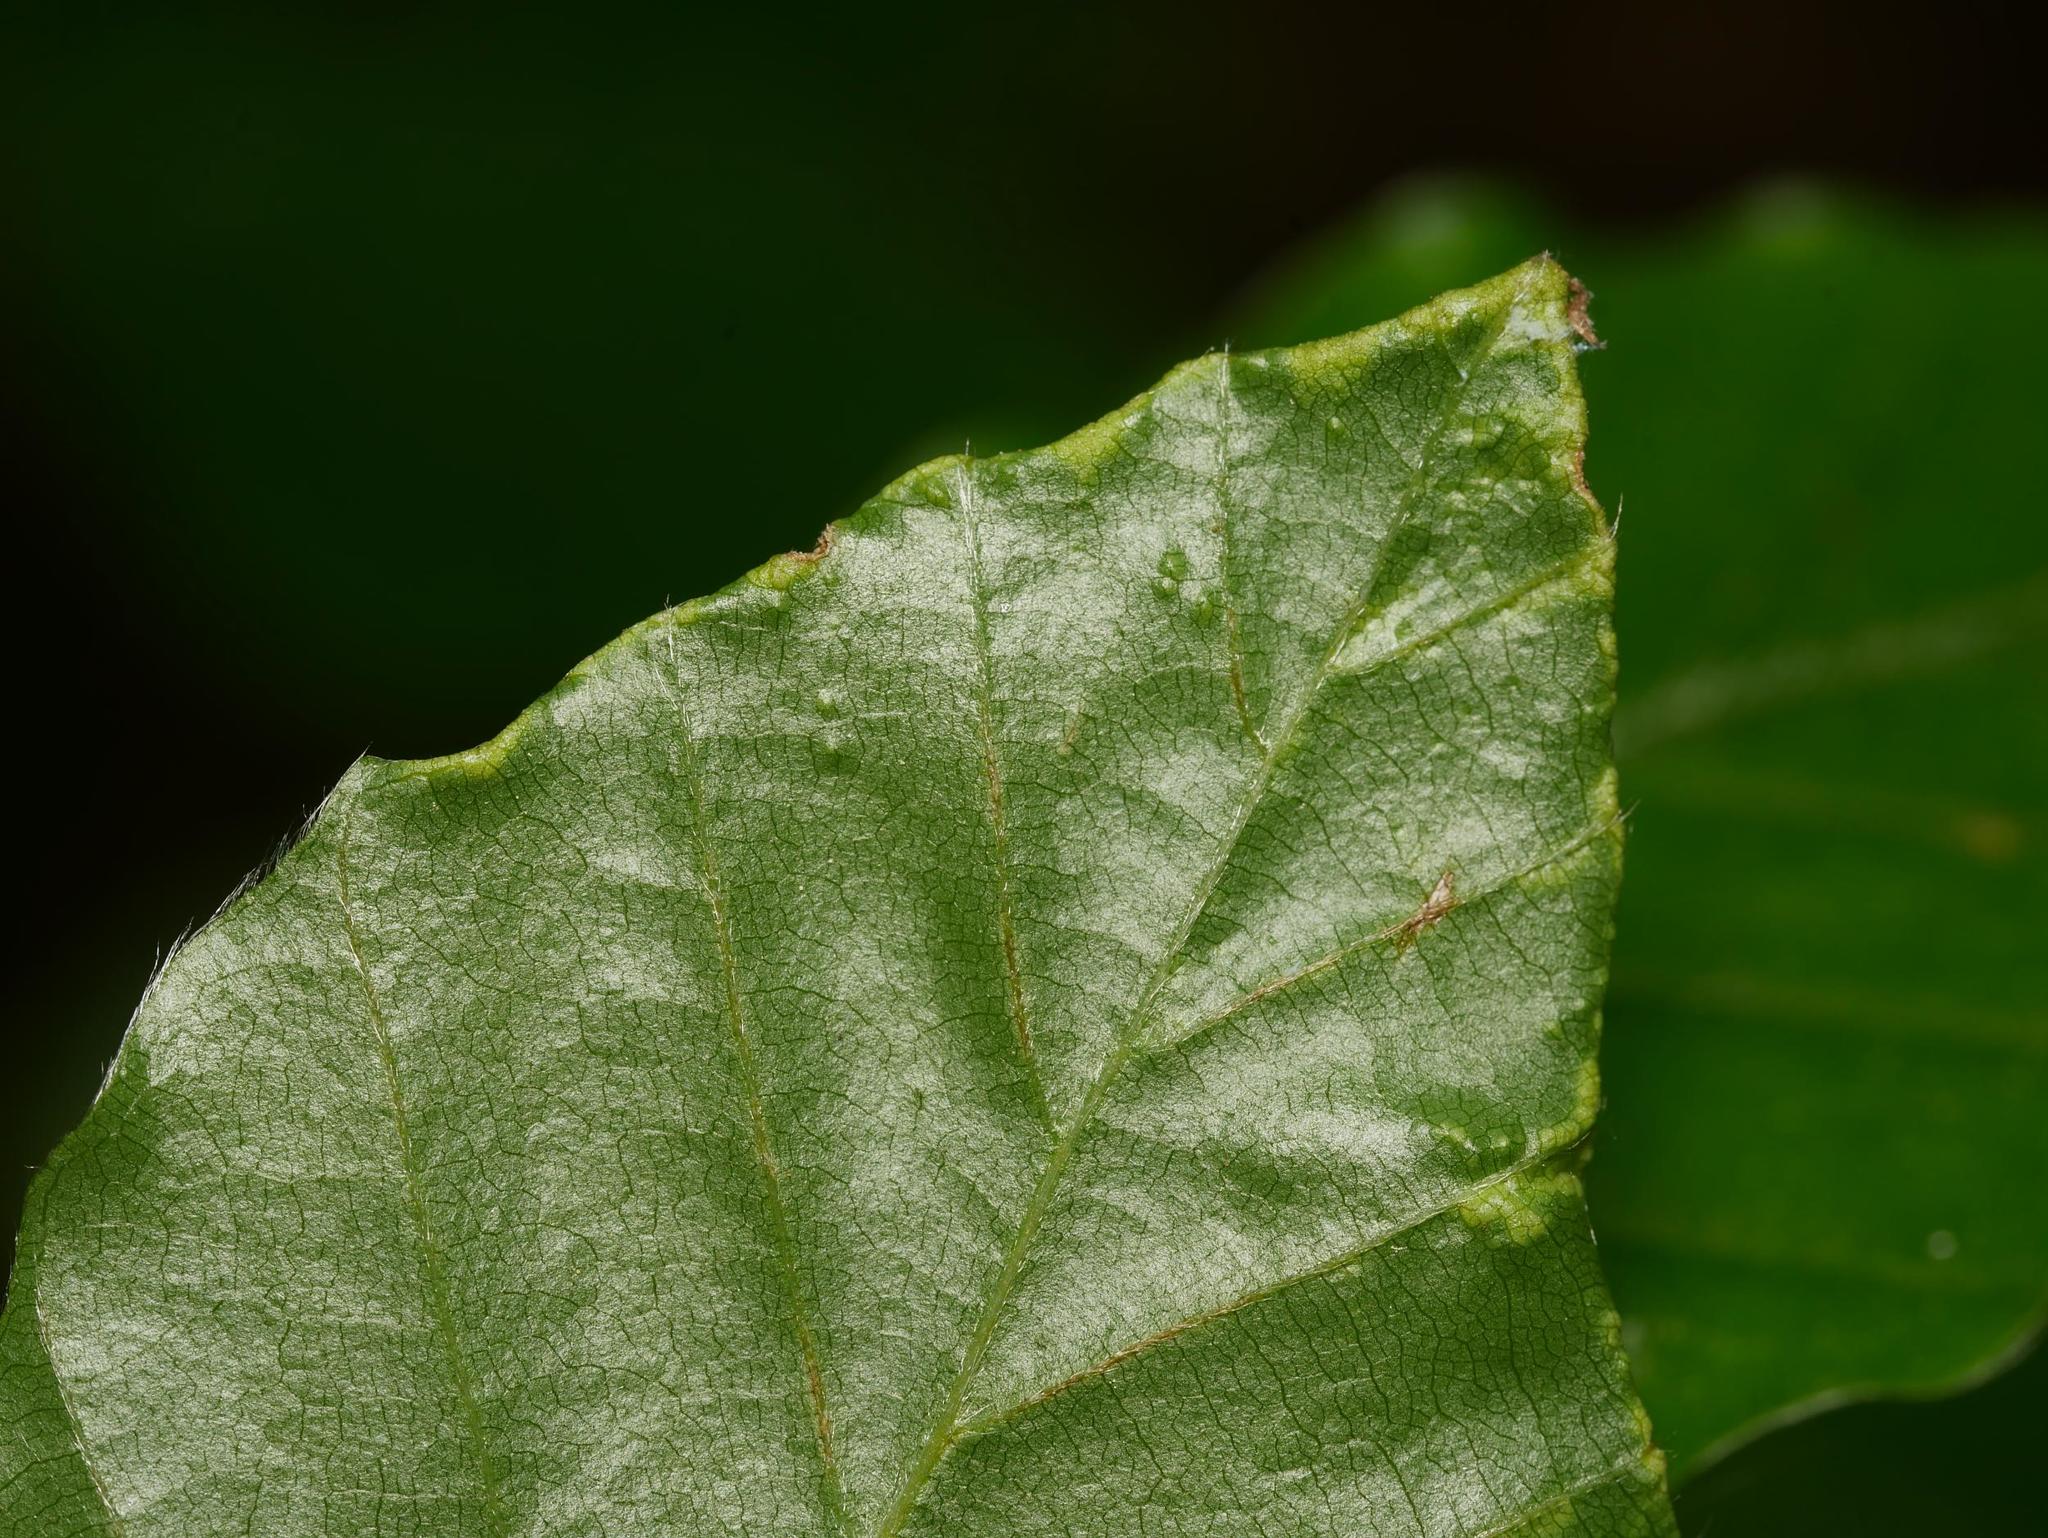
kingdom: Animalia
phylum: Arthropoda
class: Arachnida
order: Trombidiformes
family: Eriophyidae
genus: Acalitus
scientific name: Acalitus stenaspis
